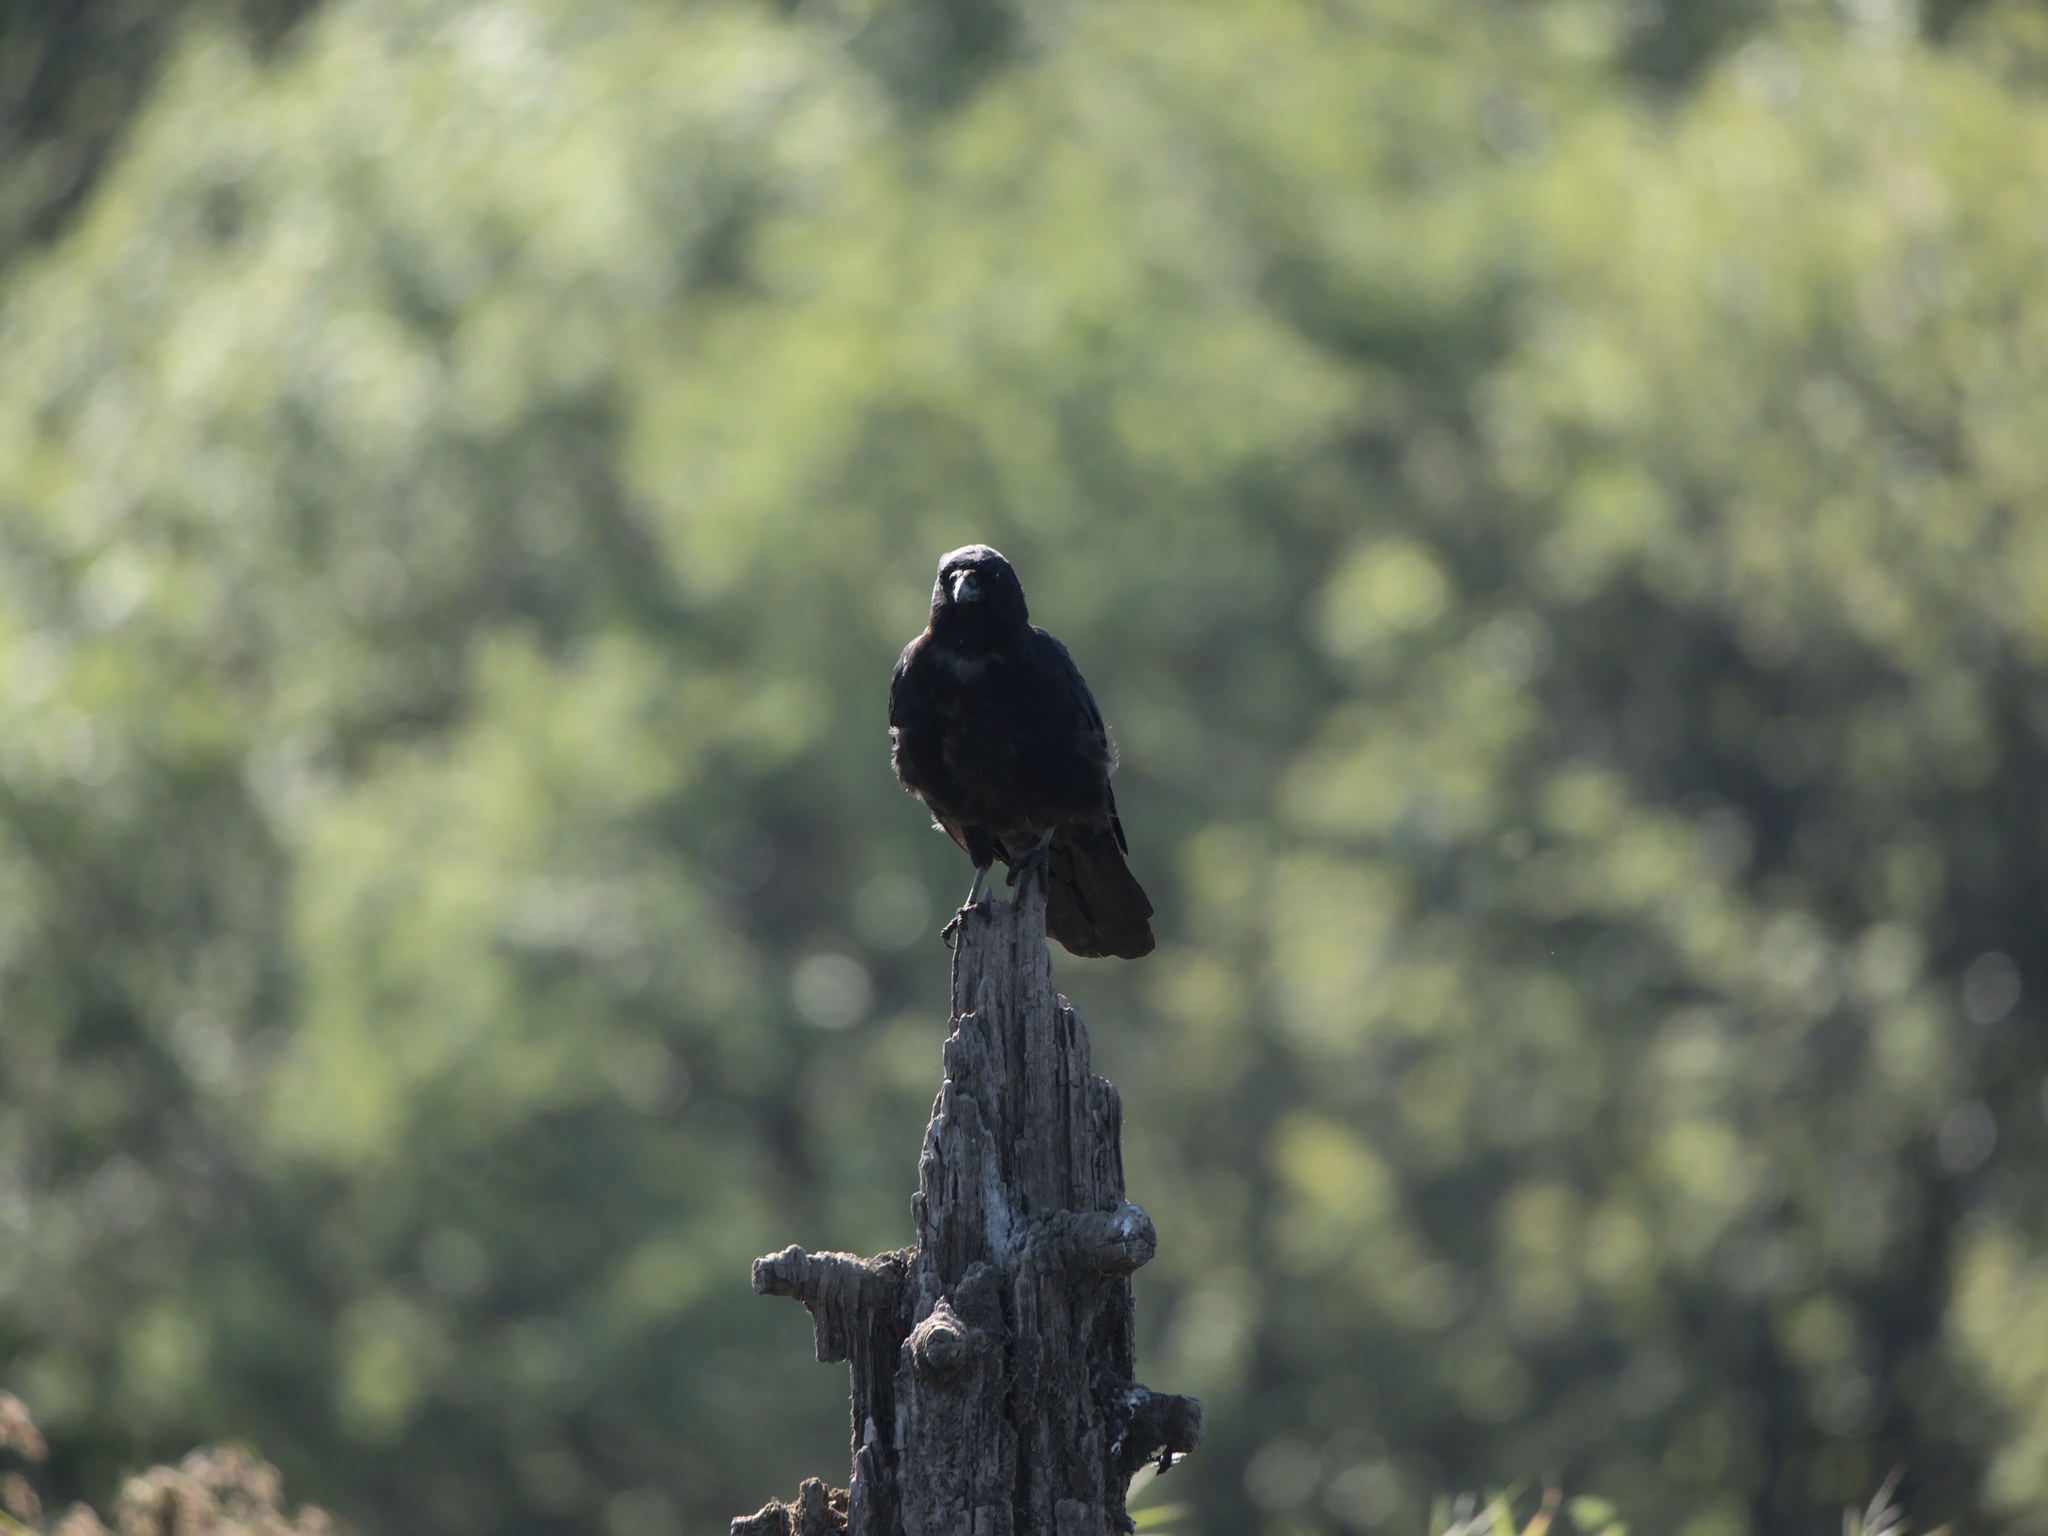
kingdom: Animalia
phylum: Chordata
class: Aves
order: Passeriformes
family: Corvidae
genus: Corvus
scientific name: Corvus brachyrhynchos
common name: American crow
